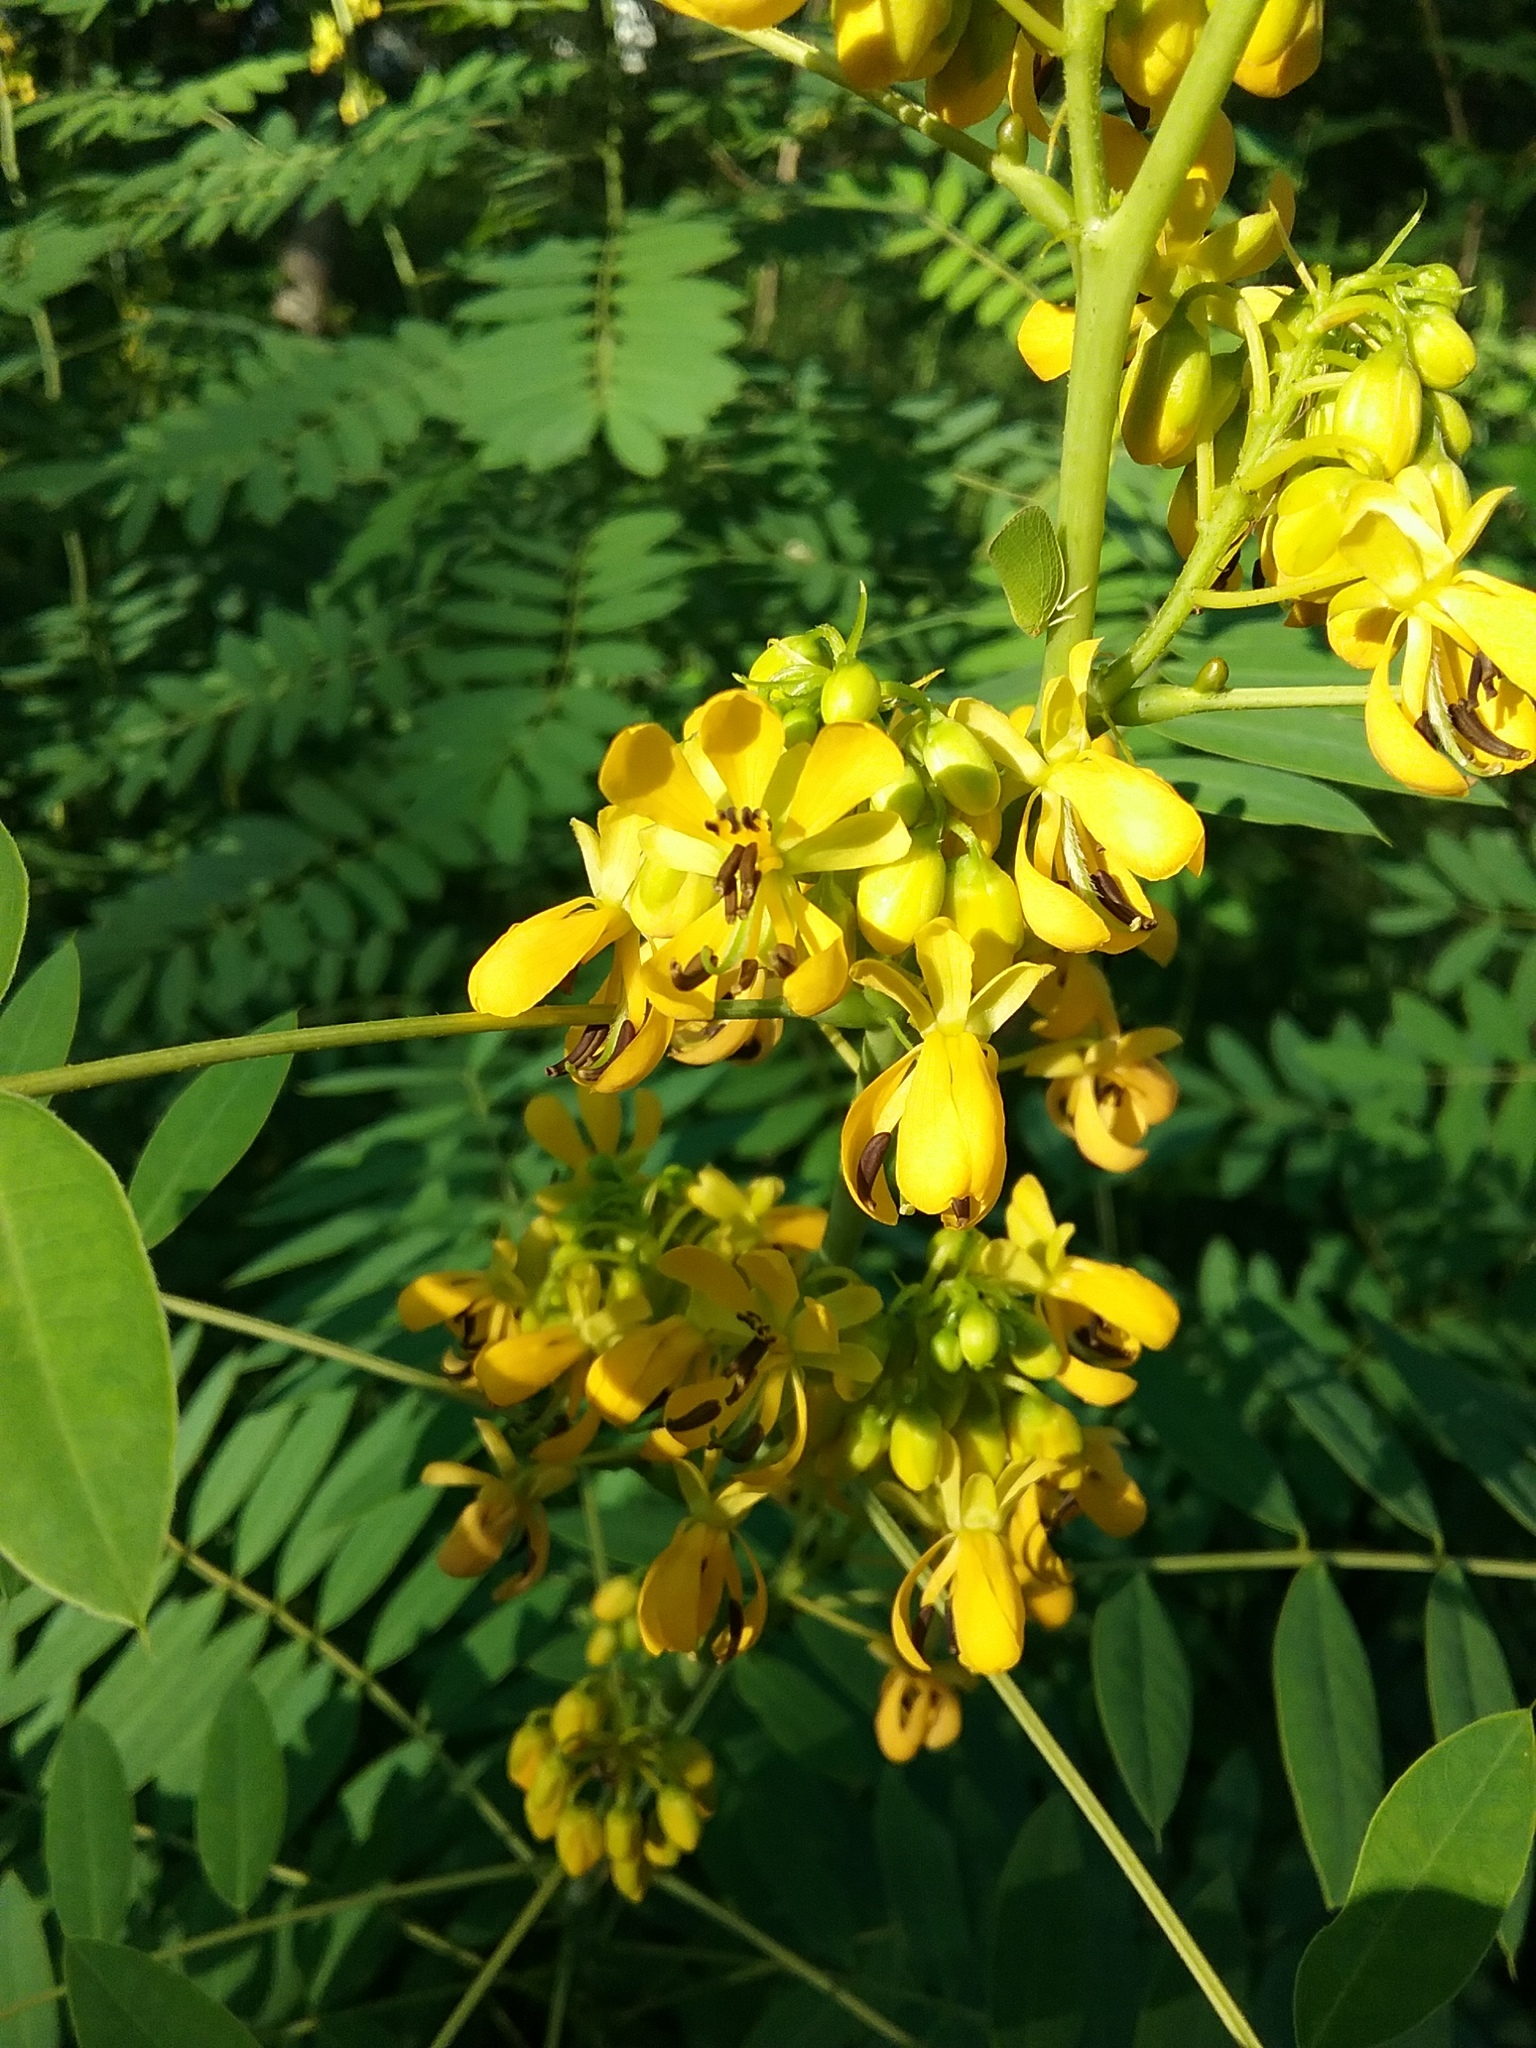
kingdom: Plantae
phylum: Tracheophyta
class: Magnoliopsida
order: Fabales
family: Fabaceae
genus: Senna
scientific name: Senna hebecarpa
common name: Wild senna
